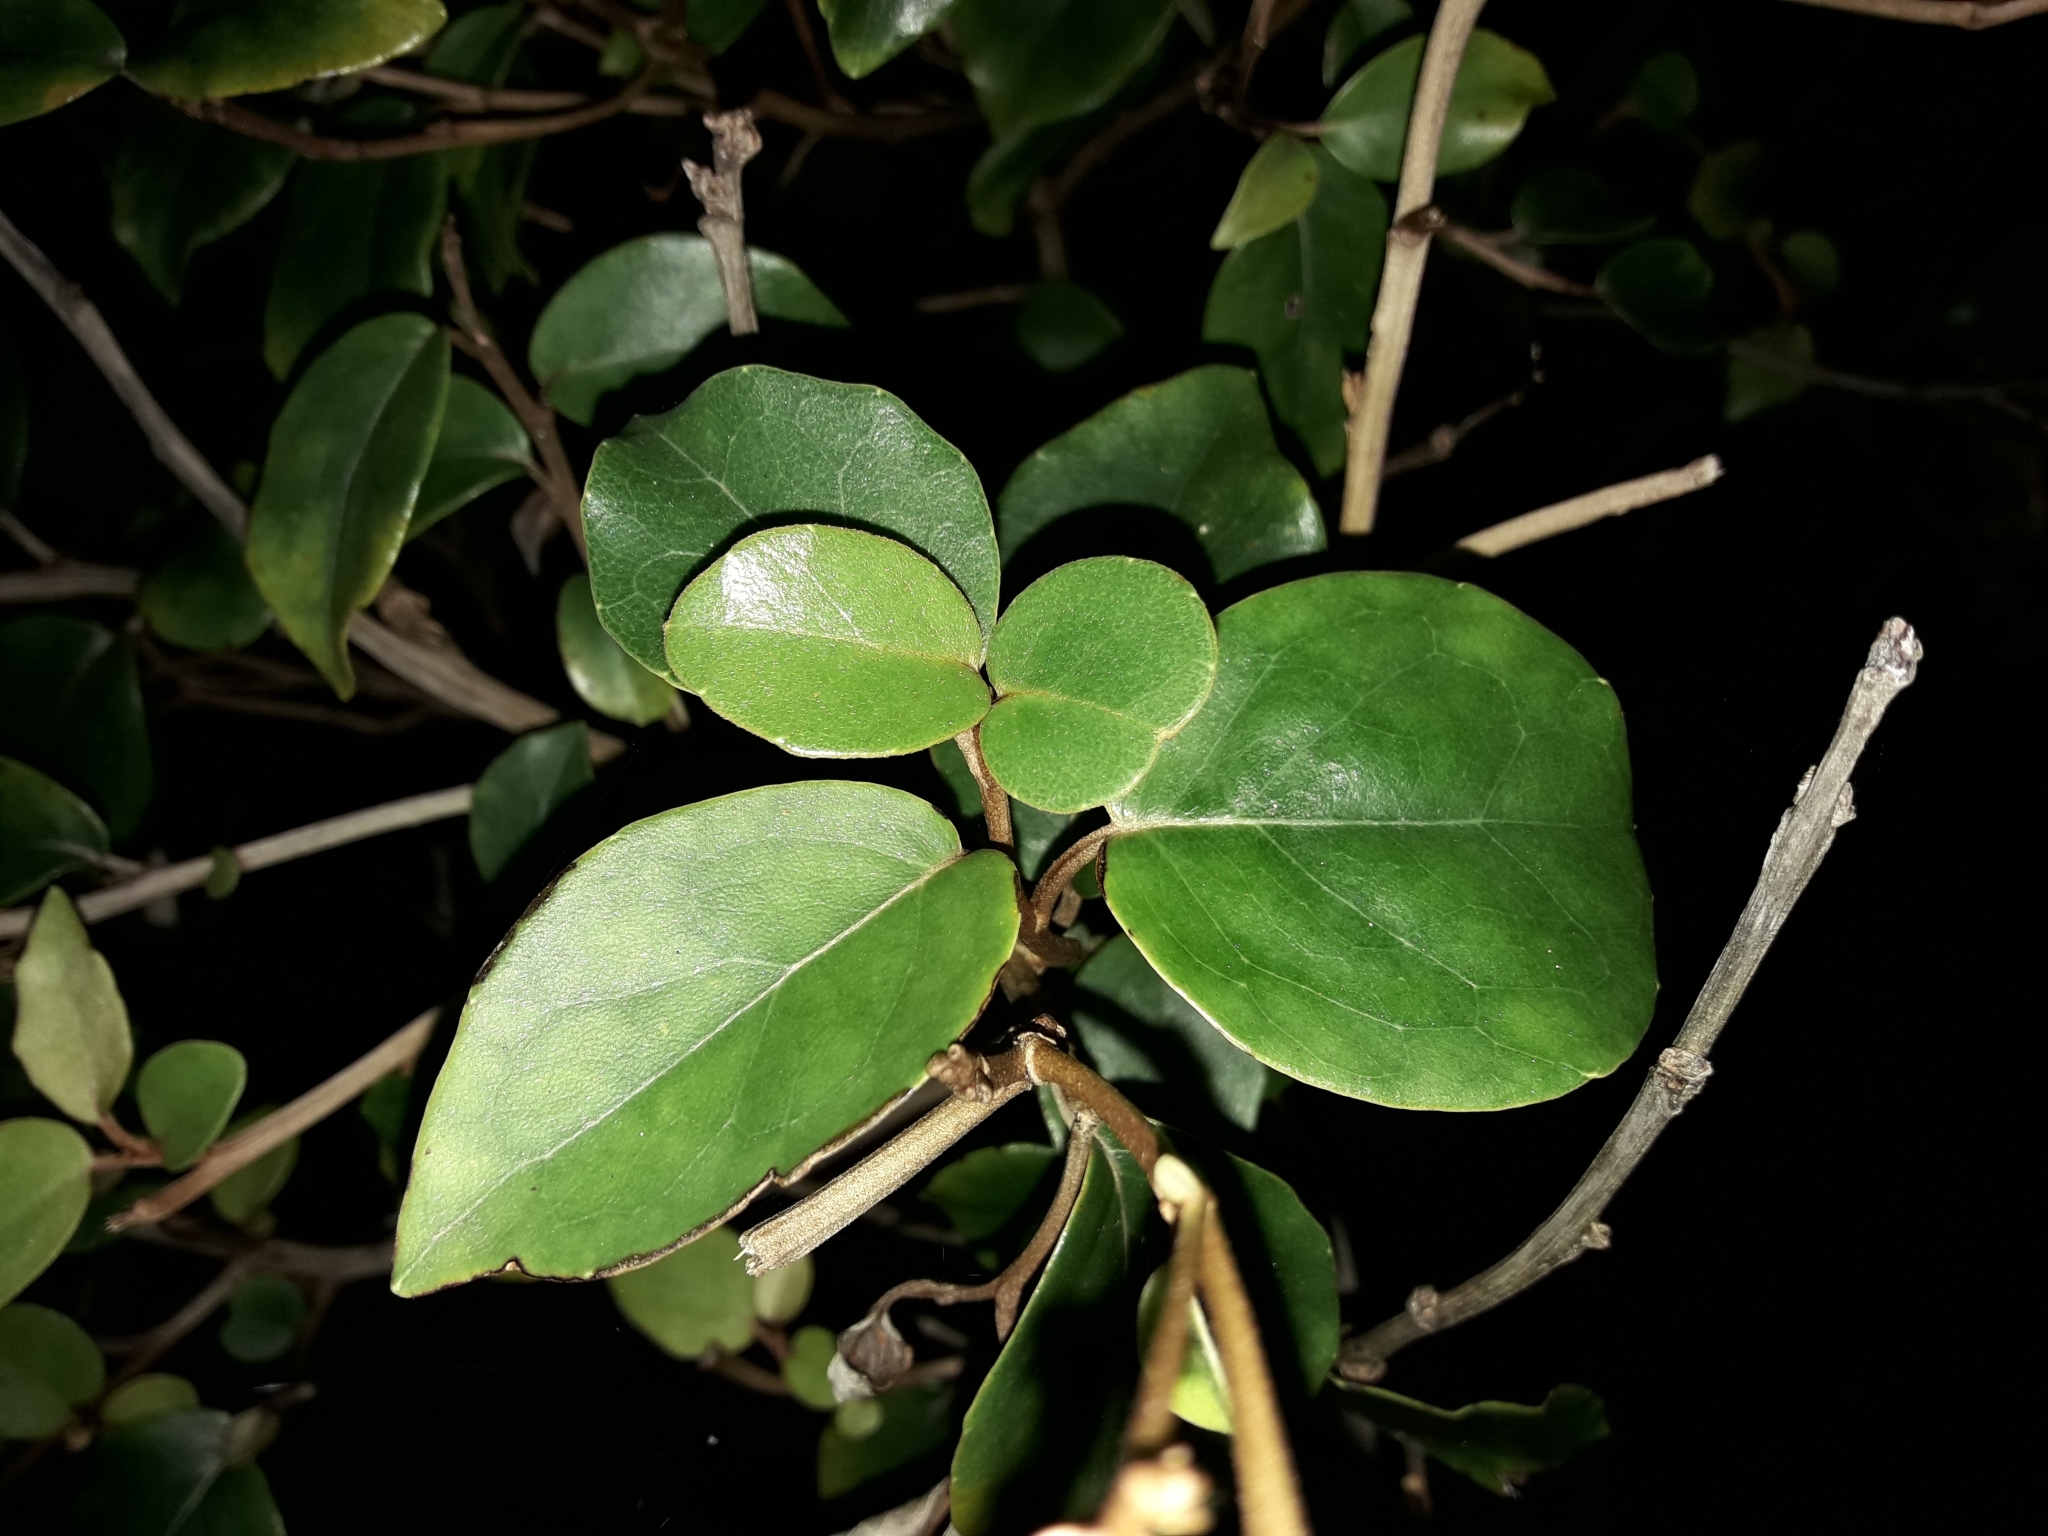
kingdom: Plantae
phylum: Tracheophyta
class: Magnoliopsida
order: Asterales
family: Asteraceae
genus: Olearia
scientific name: Olearia arborescens
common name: Glossy tree daisy
